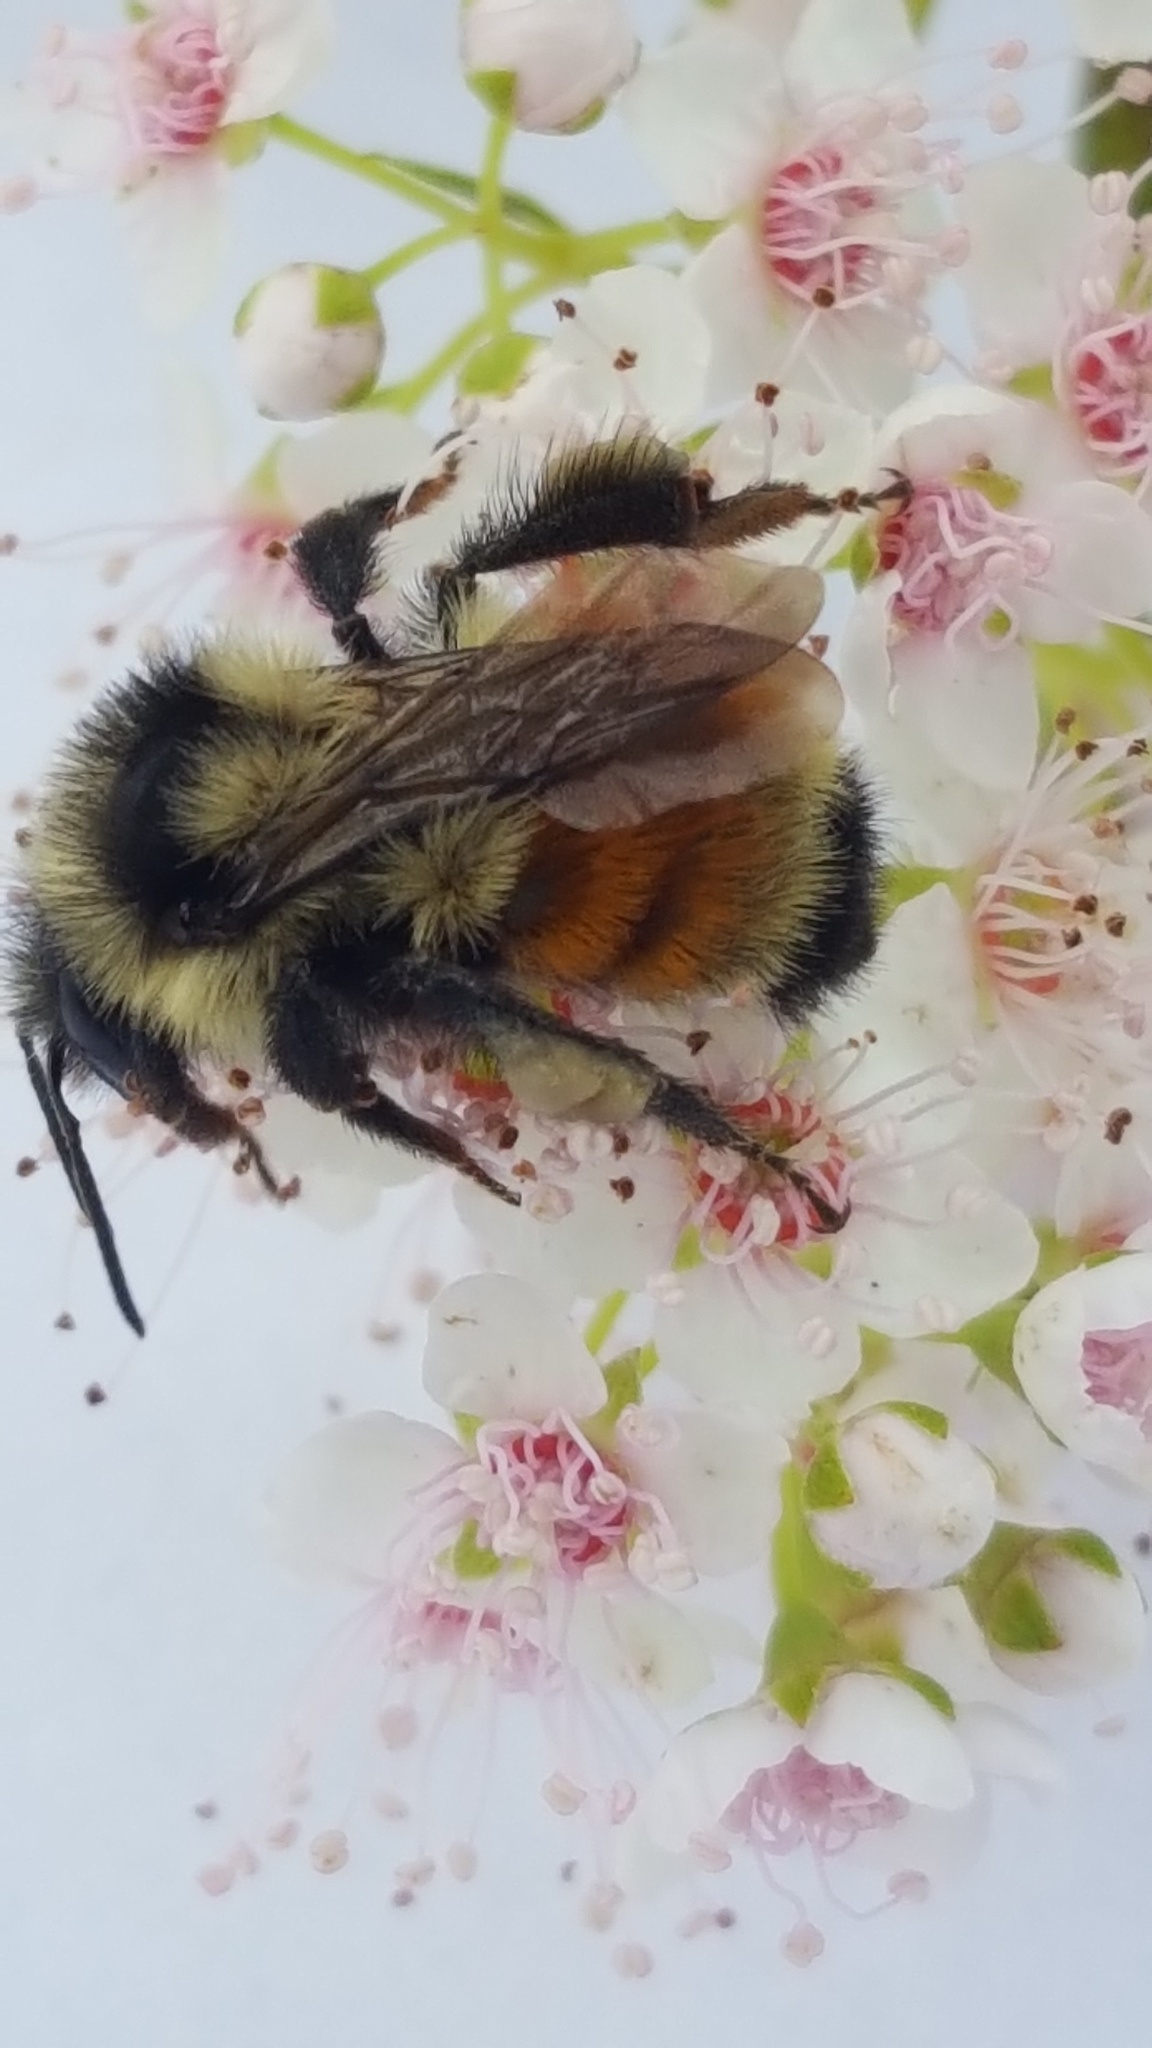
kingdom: Animalia
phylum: Arthropoda
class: Insecta
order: Hymenoptera
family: Apidae
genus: Bombus
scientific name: Bombus ternarius
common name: Tri-colored bumble bee
